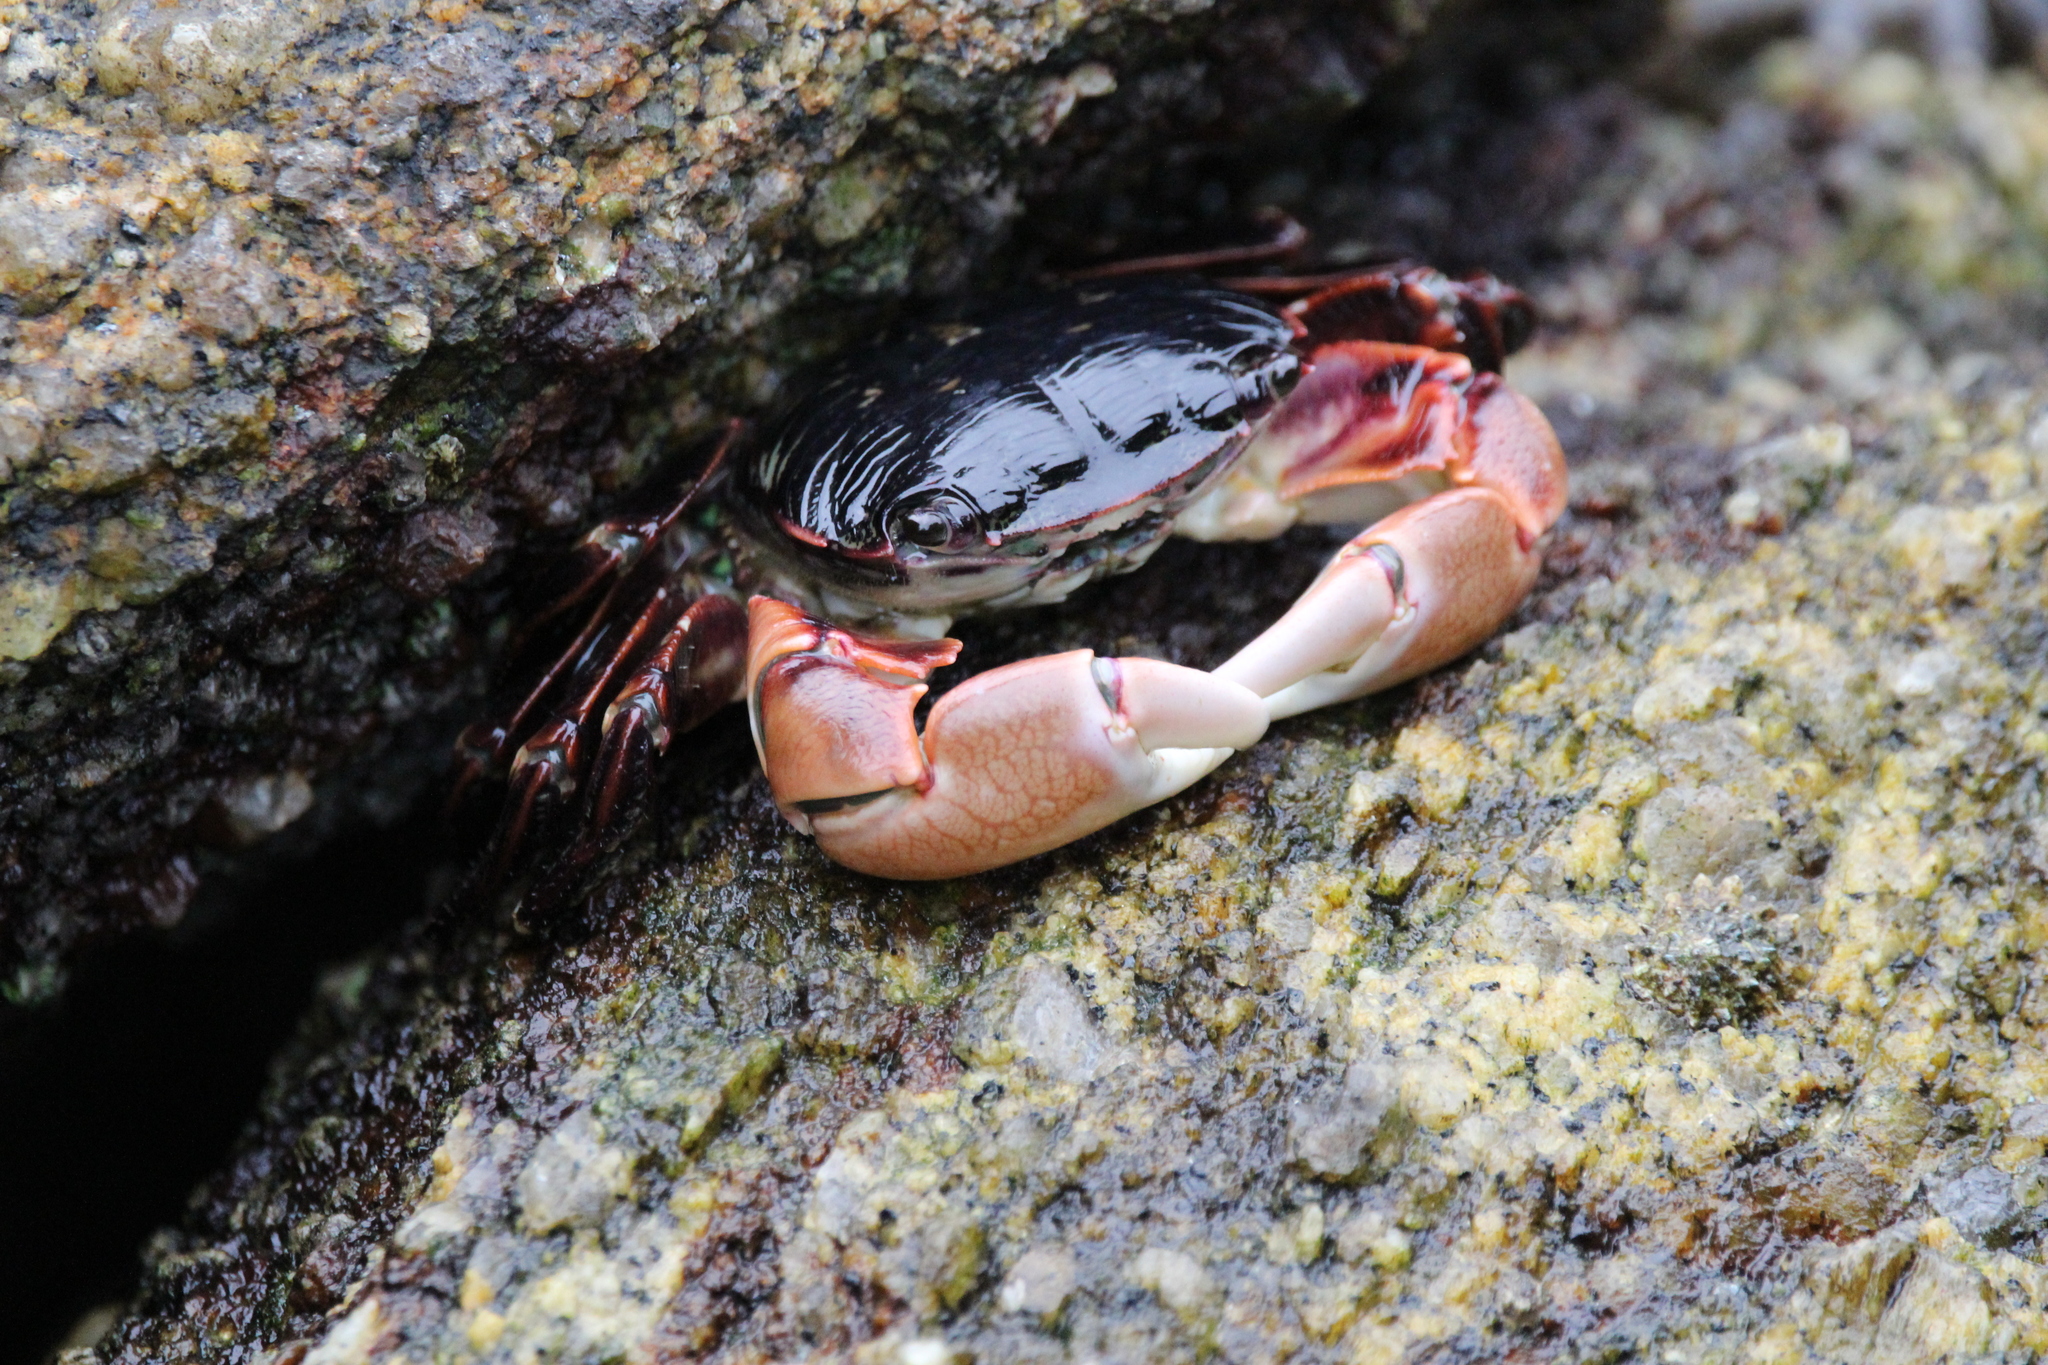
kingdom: Animalia
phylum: Arthropoda
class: Malacostraca
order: Decapoda
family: Grapsidae
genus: Pachygrapsus
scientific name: Pachygrapsus crassipes
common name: Striped shore crab
